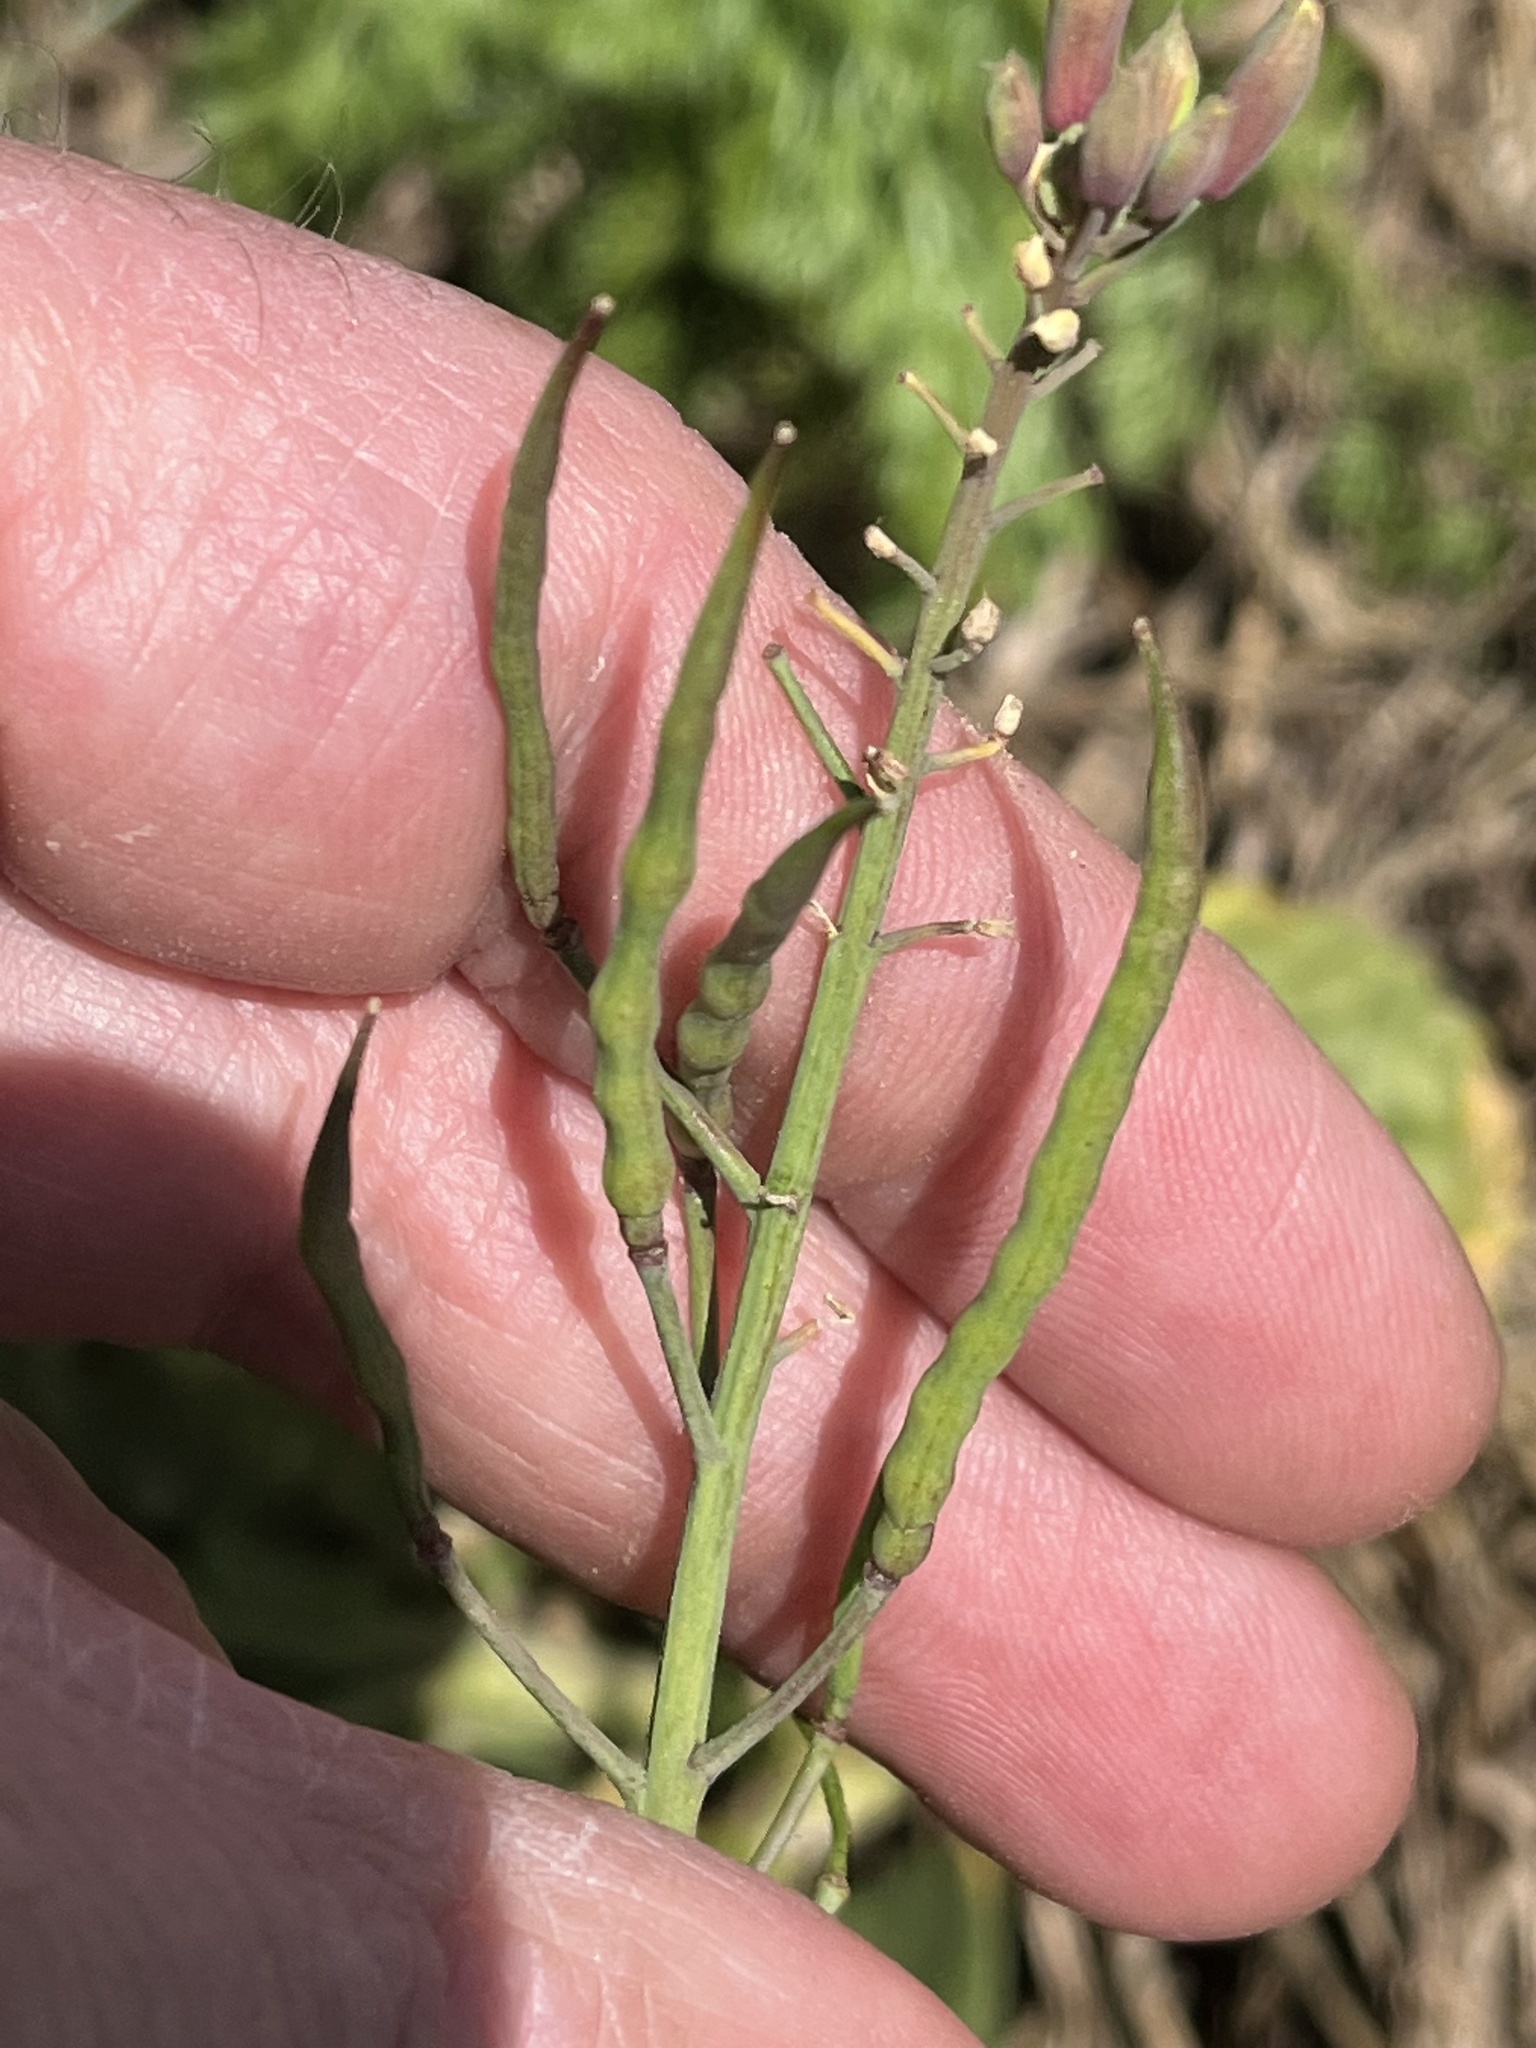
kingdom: Plantae
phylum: Tracheophyta
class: Magnoliopsida
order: Brassicales
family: Brassicaceae
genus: Raphanus
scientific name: Raphanus raphanistrum
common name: Wild radish
